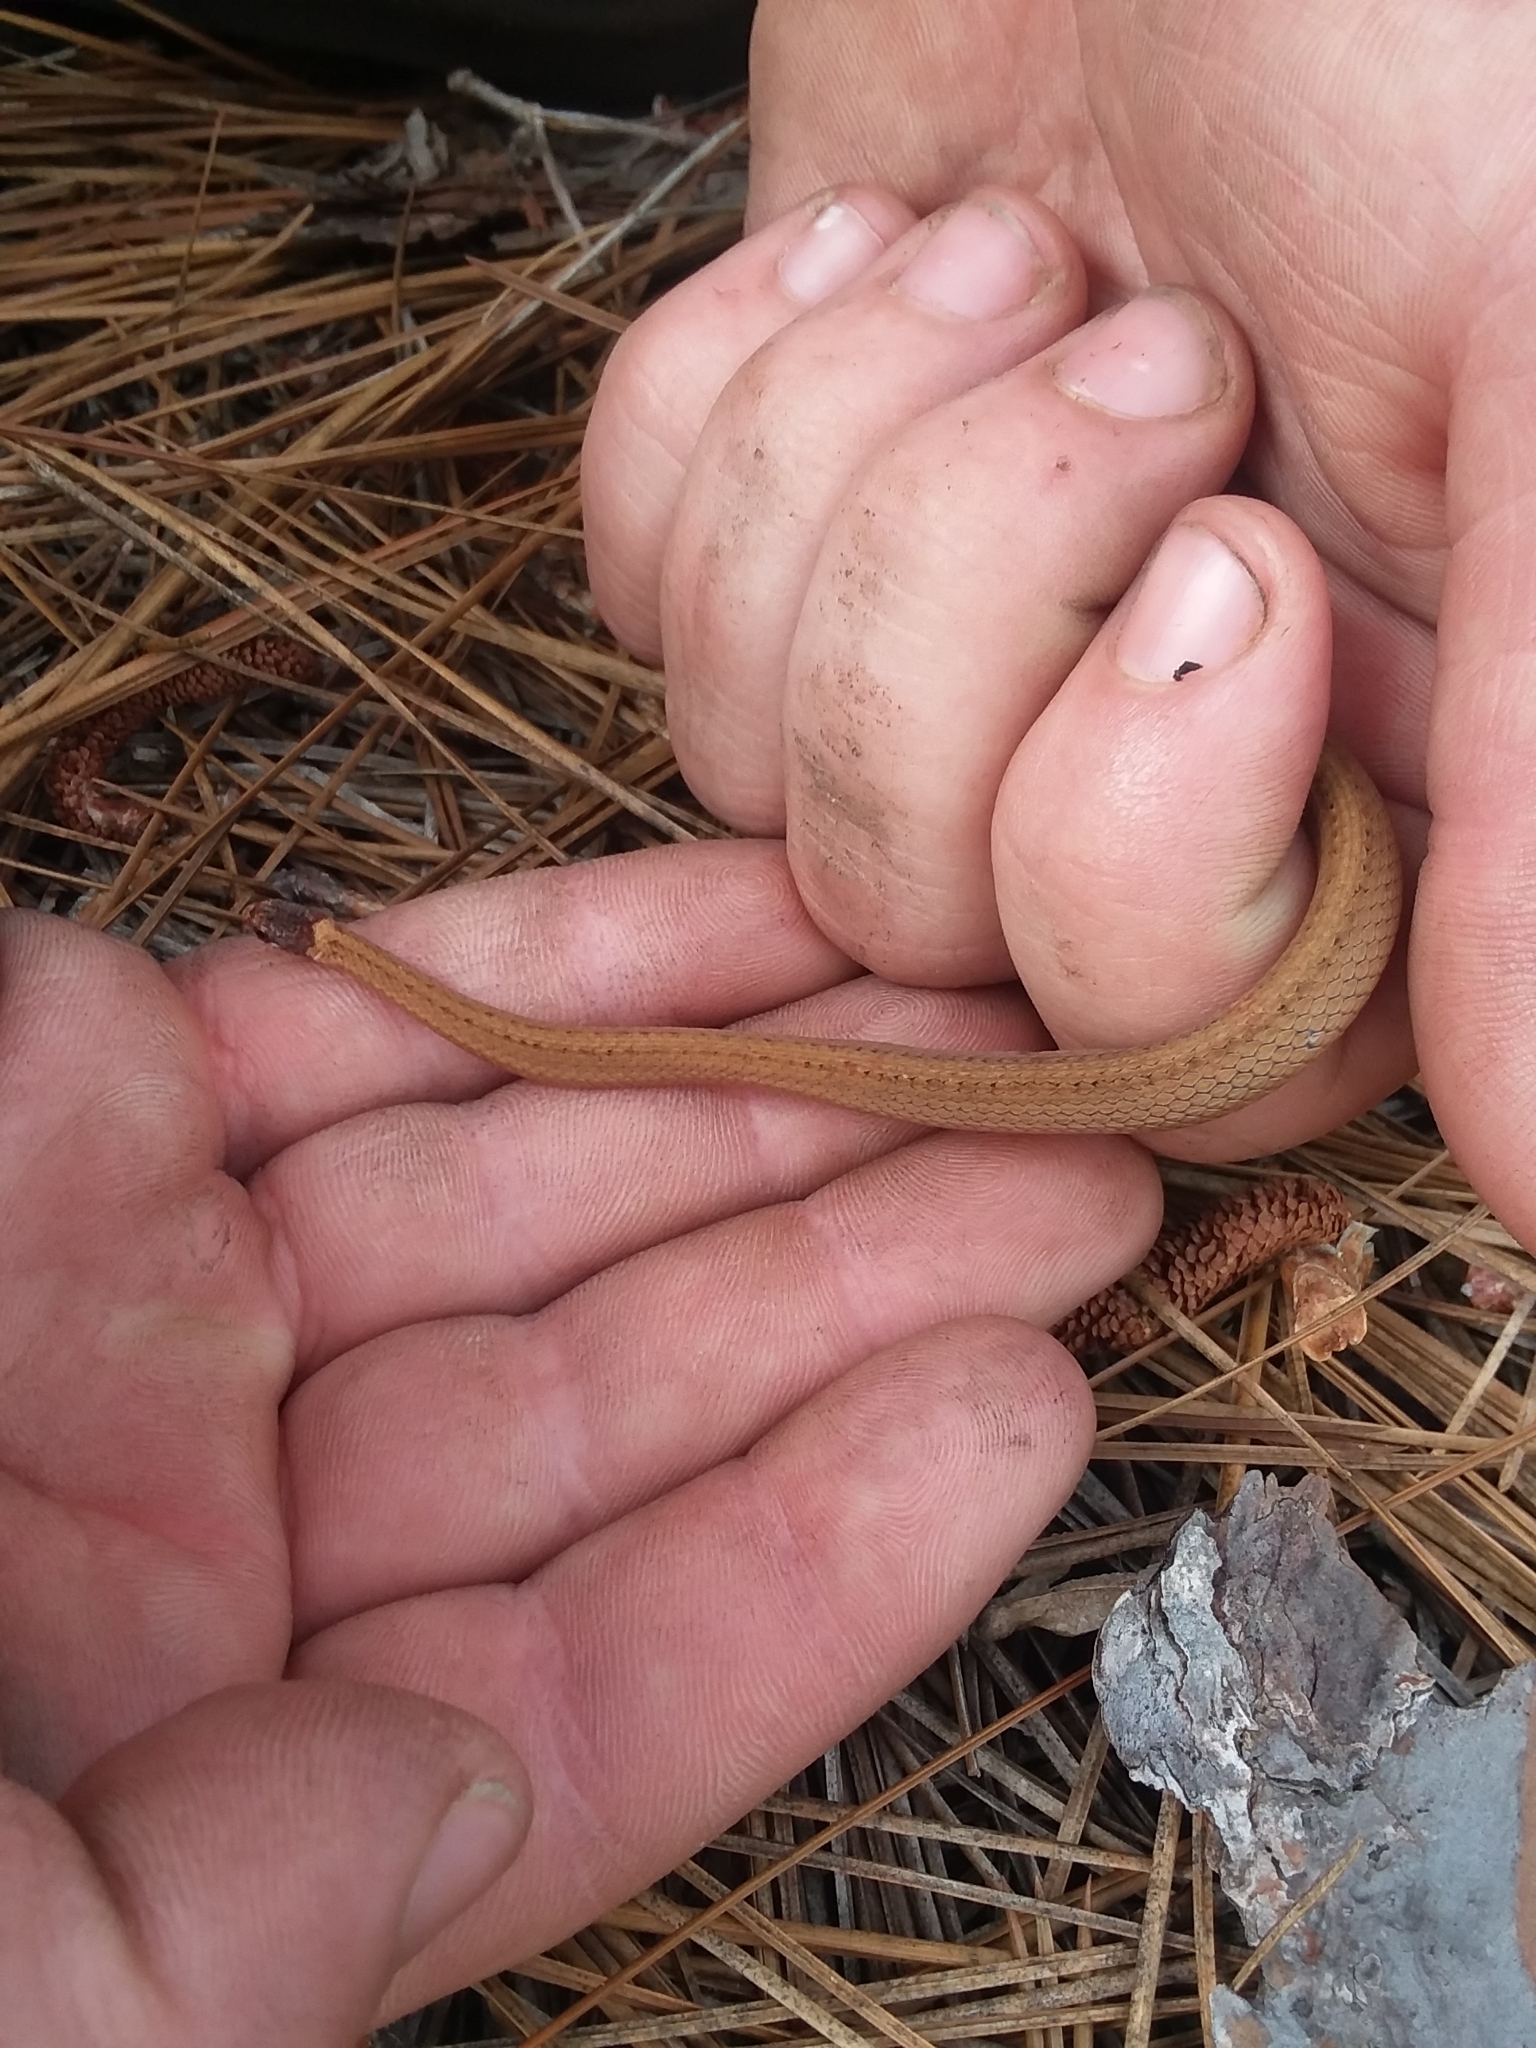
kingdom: Animalia
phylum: Chordata
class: Squamata
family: Colubridae
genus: Storeria
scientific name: Storeria occipitomaculata
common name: Redbelly snake
